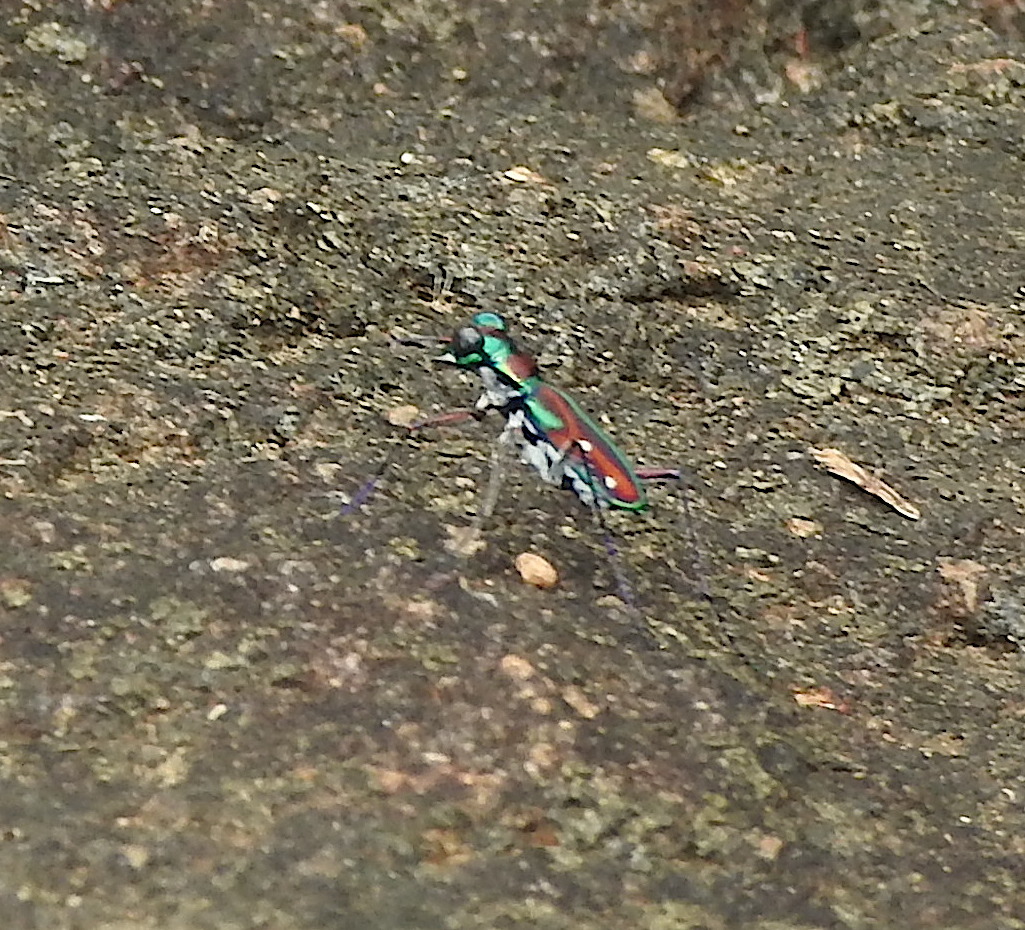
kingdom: Animalia
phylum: Arthropoda
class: Insecta
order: Coleoptera
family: Carabidae
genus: Jansenia
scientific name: Jansenia rugosiceps
